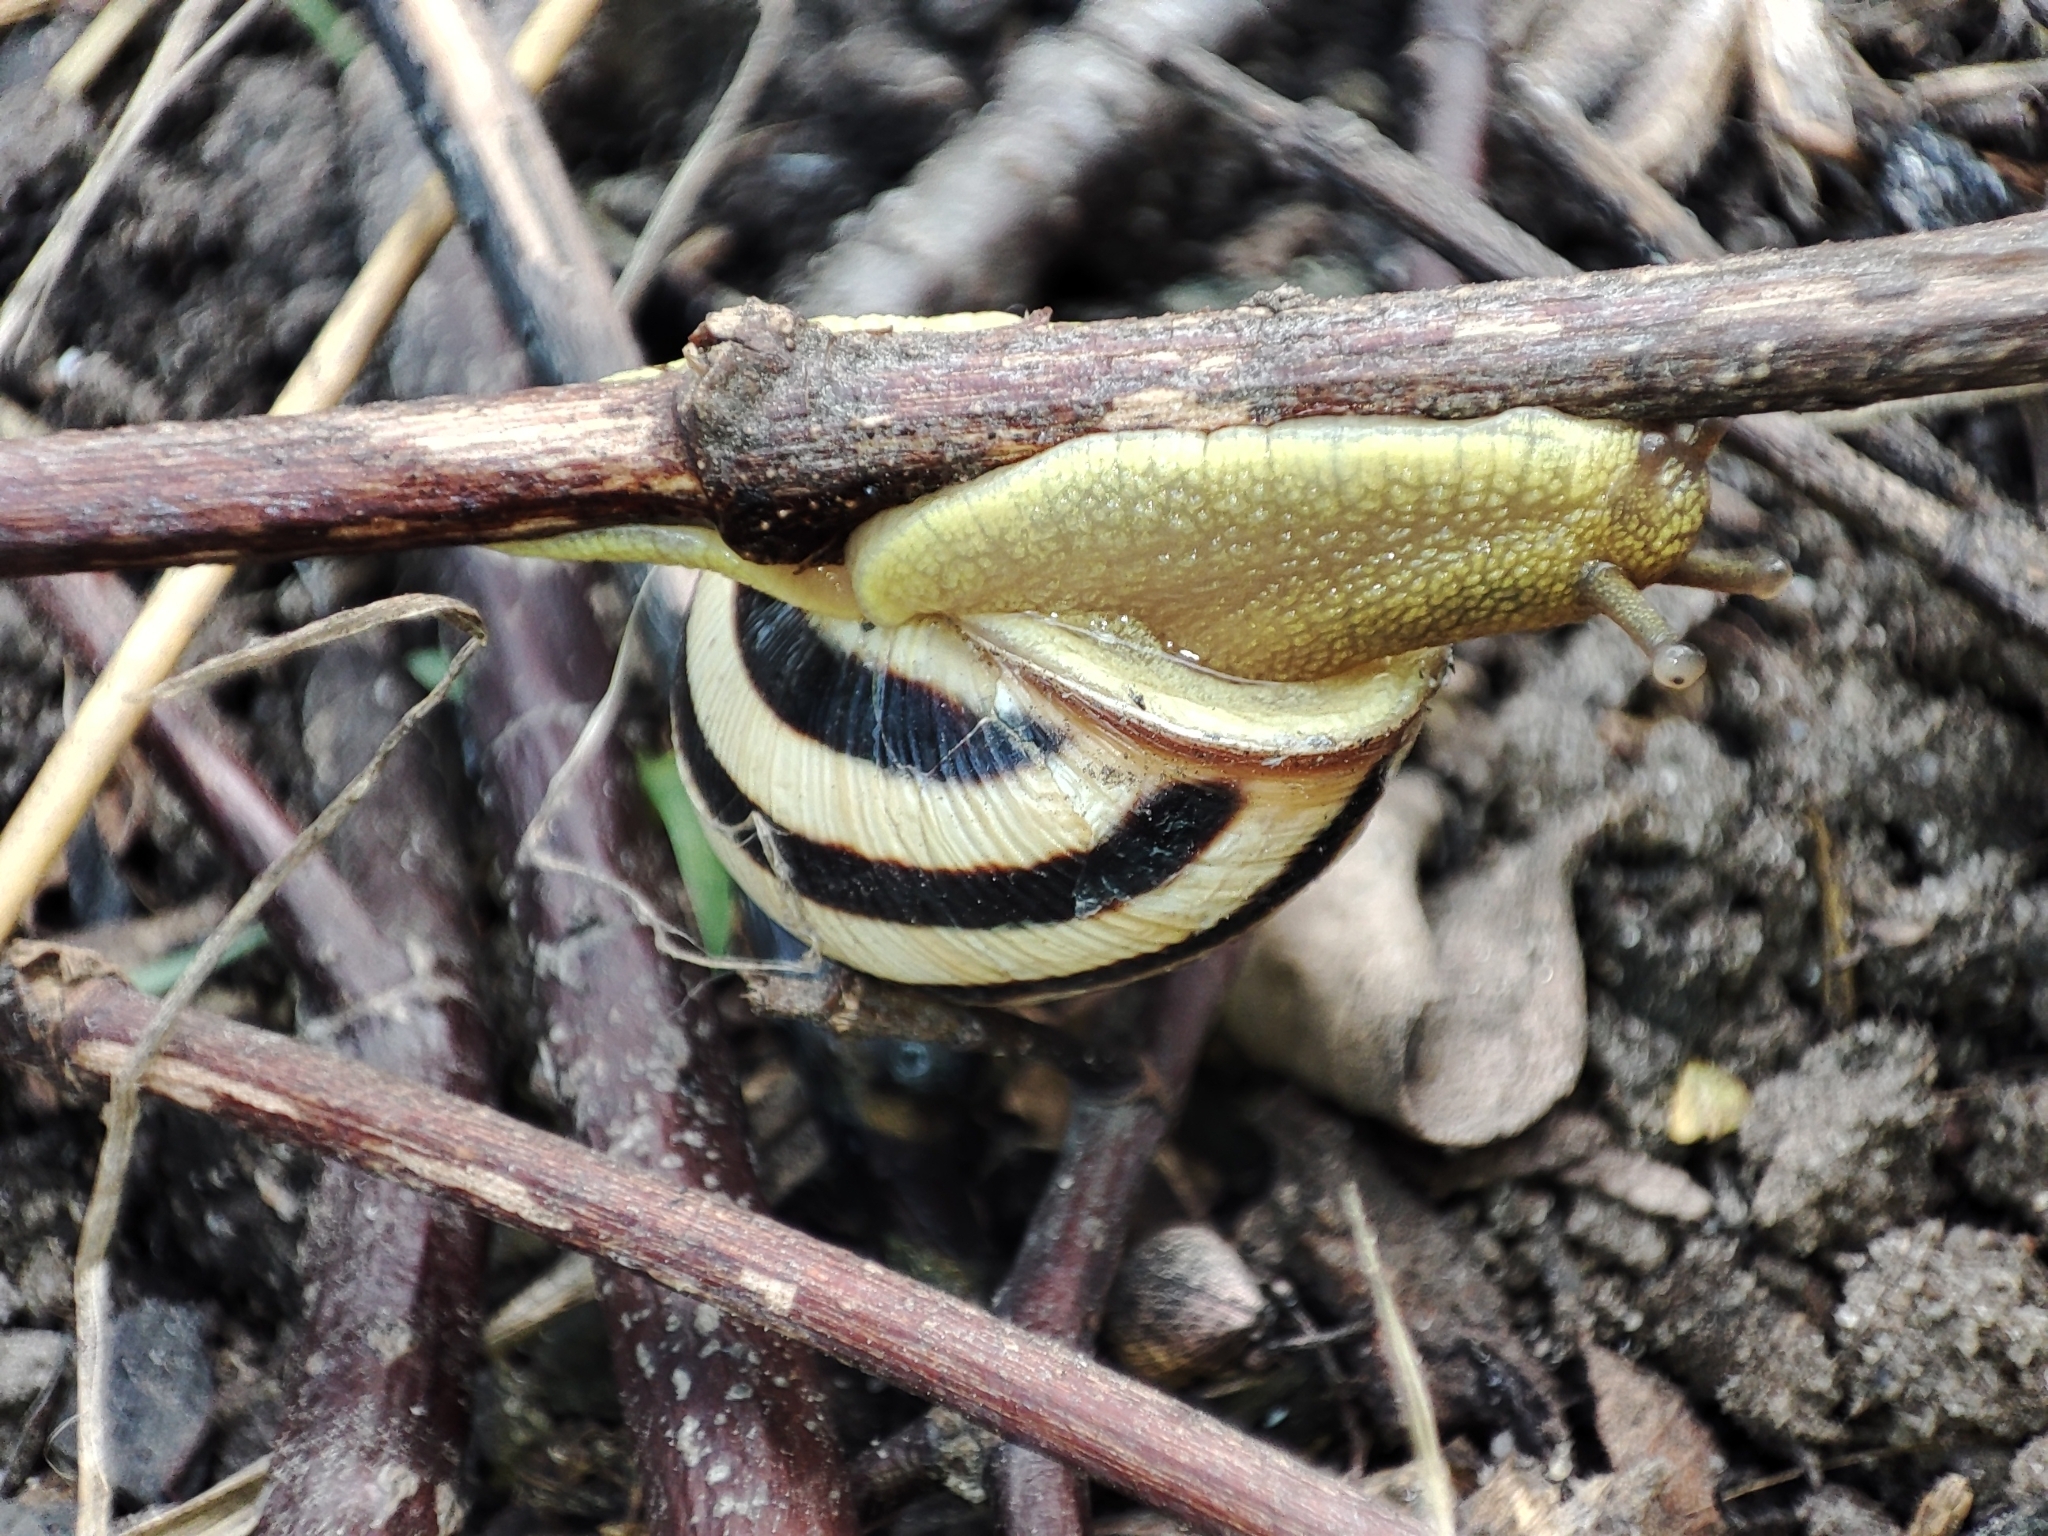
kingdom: Animalia
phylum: Mollusca
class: Gastropoda
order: Stylommatophora
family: Helicidae
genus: Caucasotachea
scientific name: Caucasotachea vindobonensis
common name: European helicid land snail
